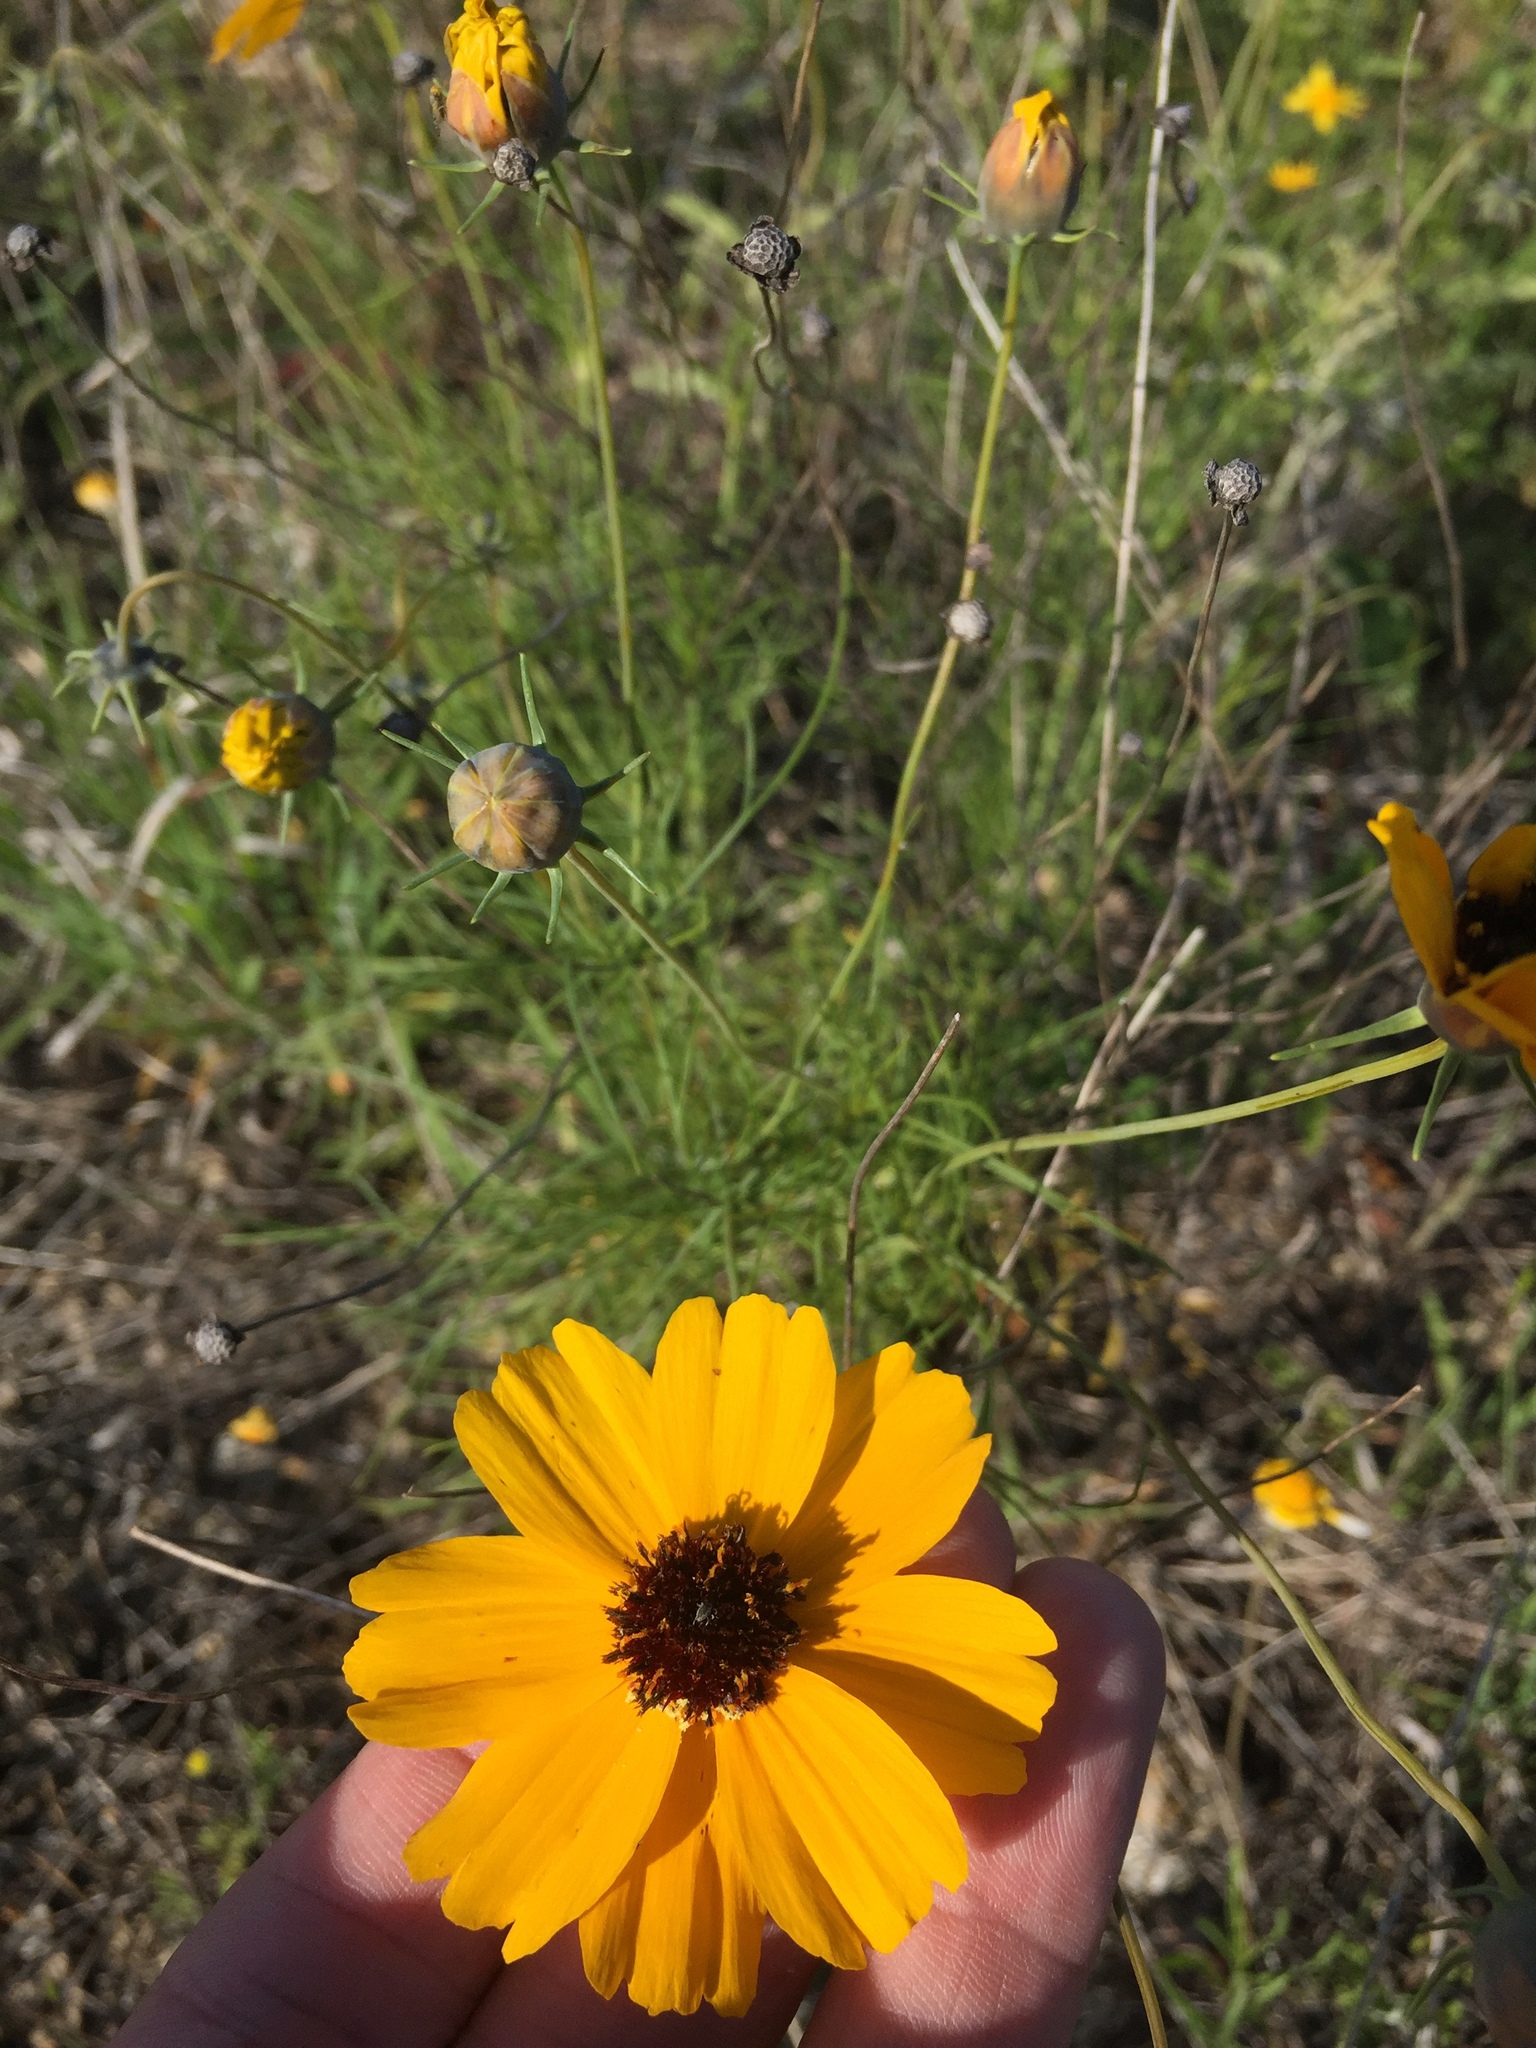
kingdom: Plantae
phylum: Tracheophyta
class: Magnoliopsida
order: Asterales
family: Asteraceae
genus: Thelesperma
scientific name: Thelesperma filifolium
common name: Stiff greenthread
